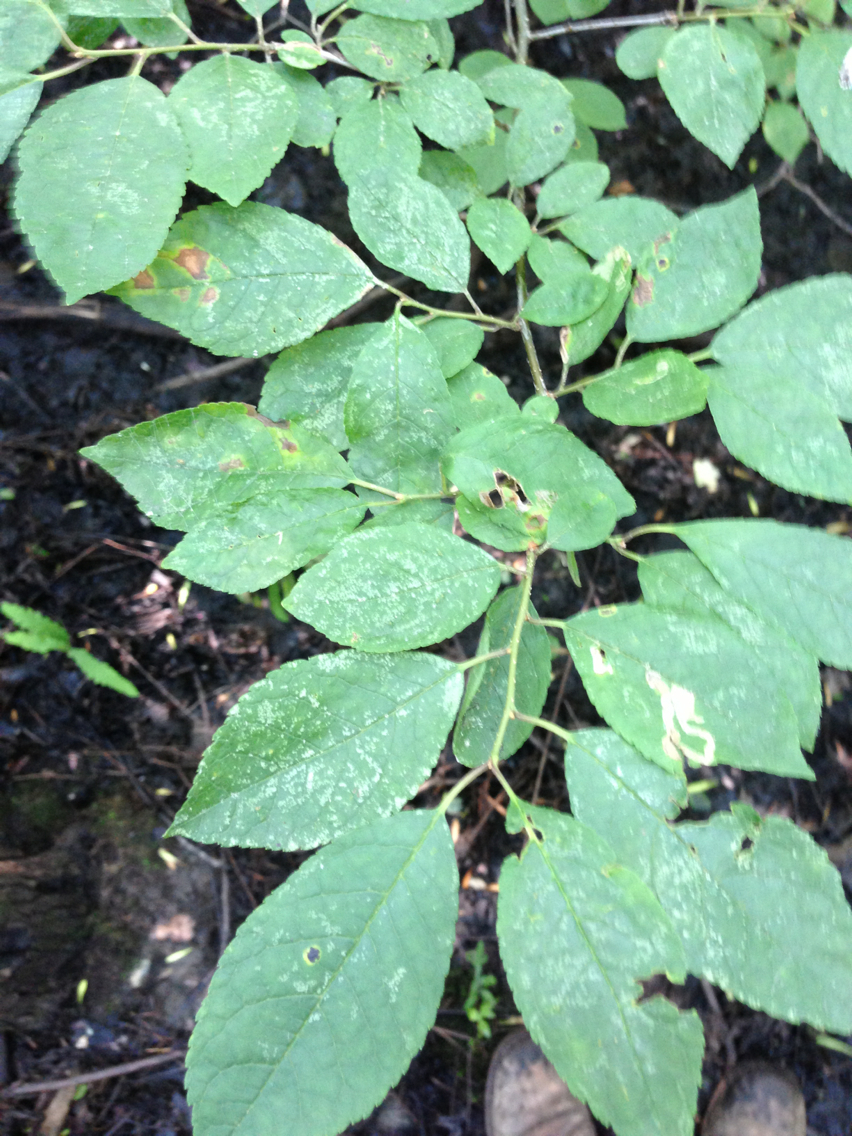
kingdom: Plantae
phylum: Tracheophyta
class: Magnoliopsida
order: Aquifoliales
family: Aquifoliaceae
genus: Ilex
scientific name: Ilex verticillata
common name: Virginia winterberry
